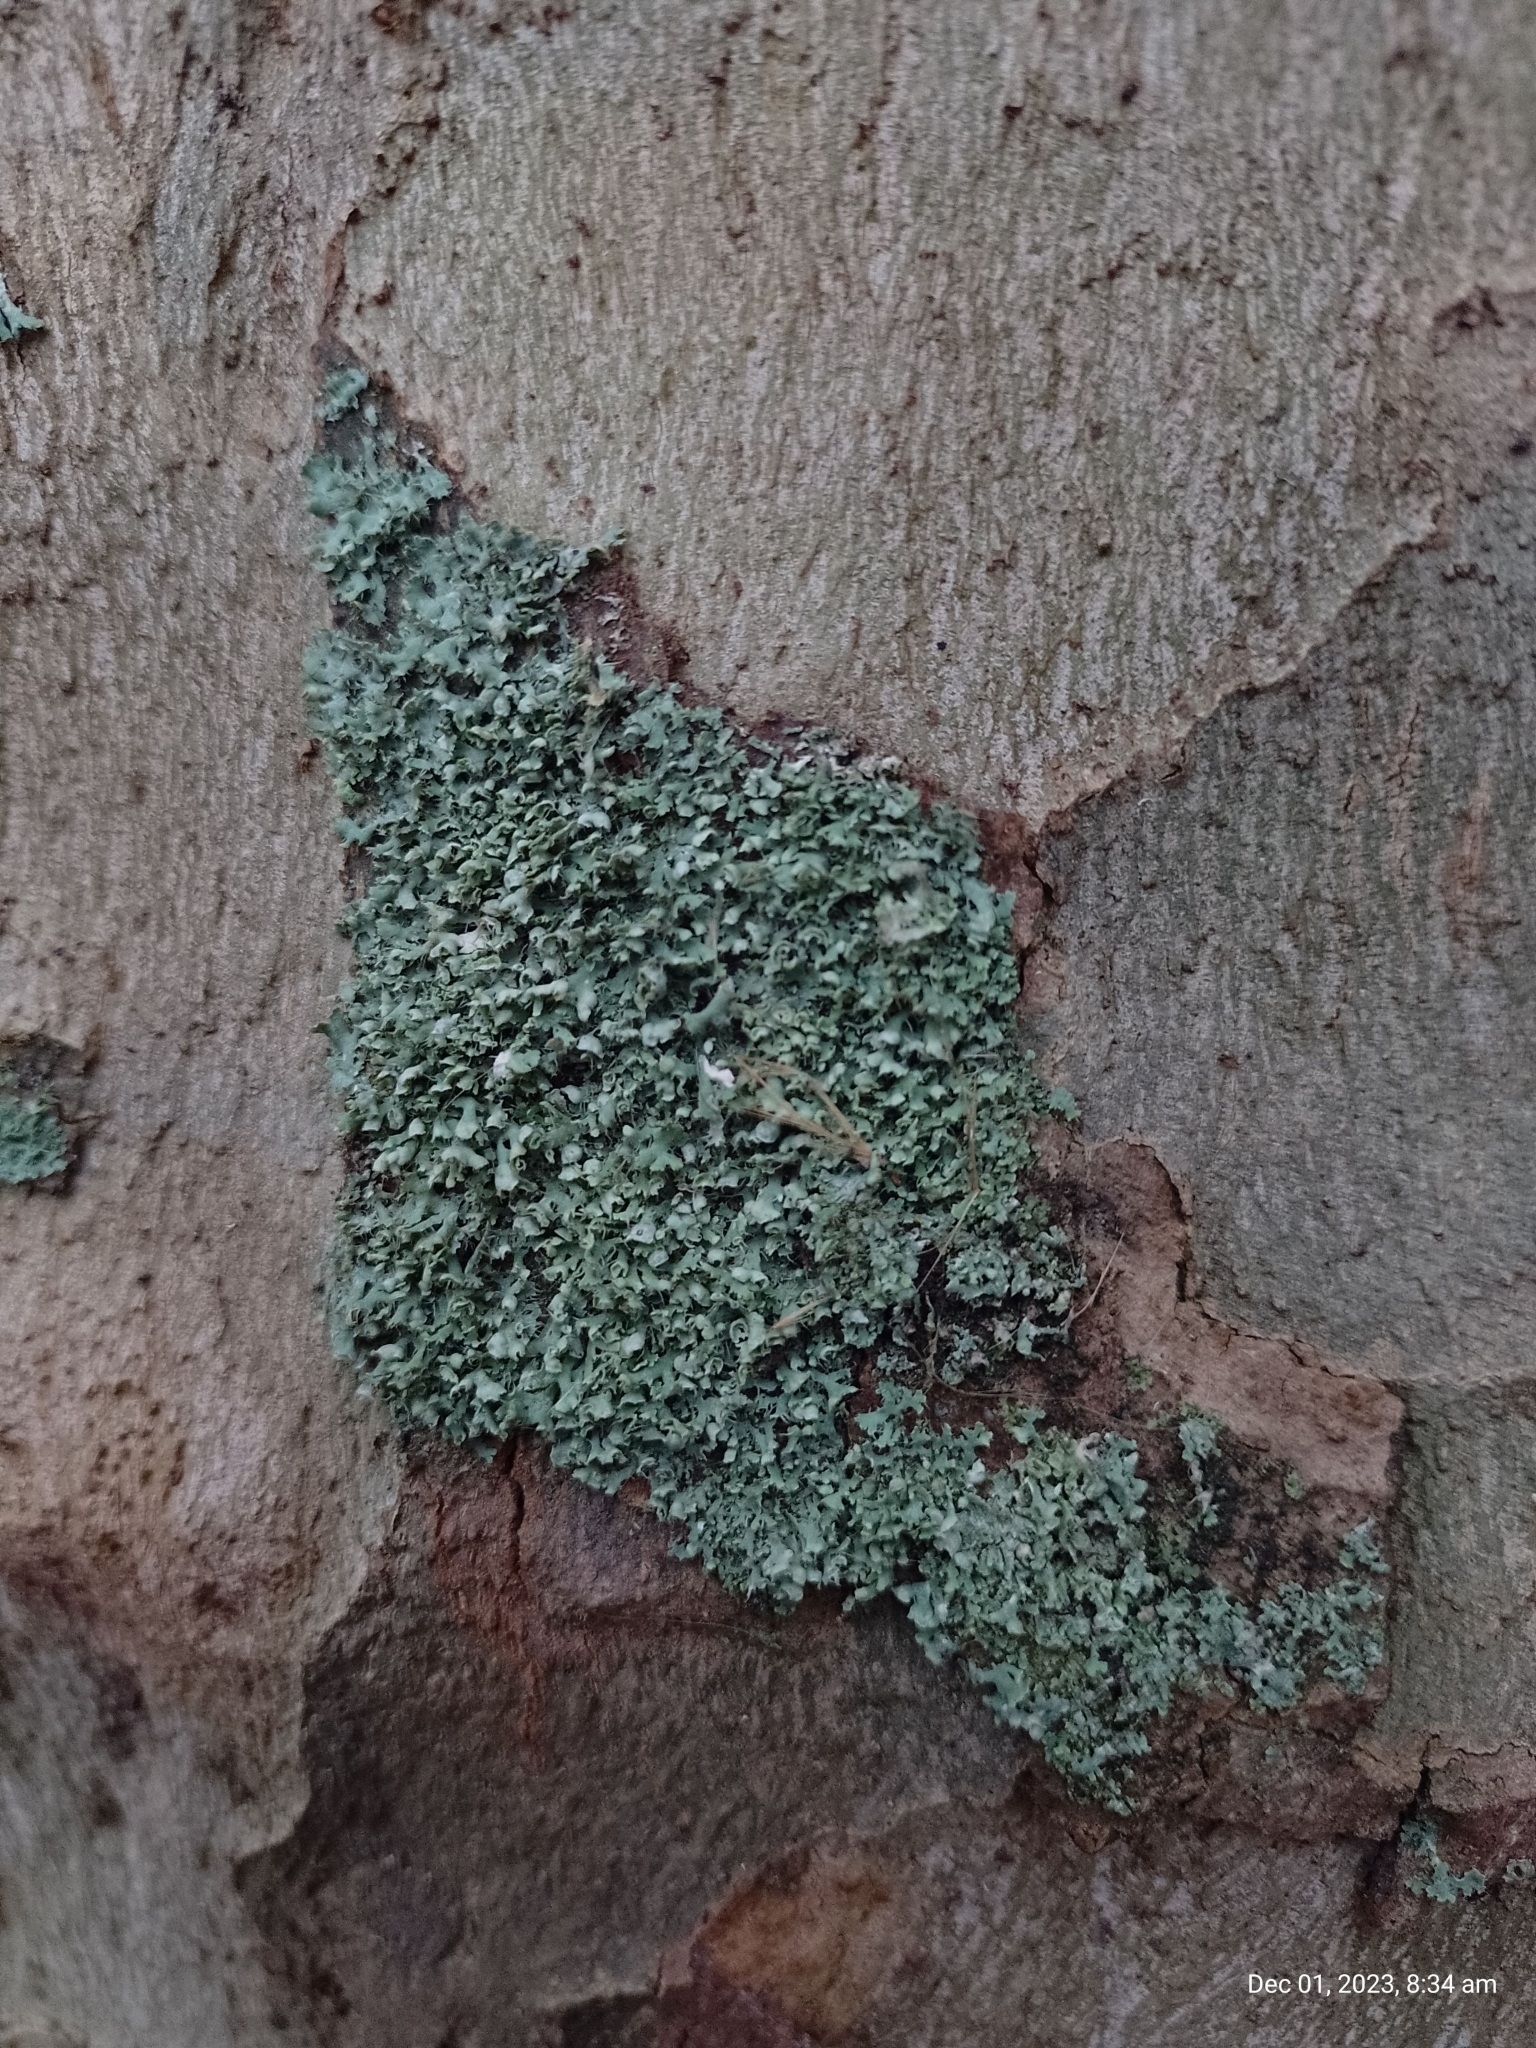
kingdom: Fungi
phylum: Ascomycota
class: Lecanoromycetes
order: Caliciales
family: Physciaceae
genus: Physcia
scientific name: Physcia adscendens
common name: Hooded rosette lichen
